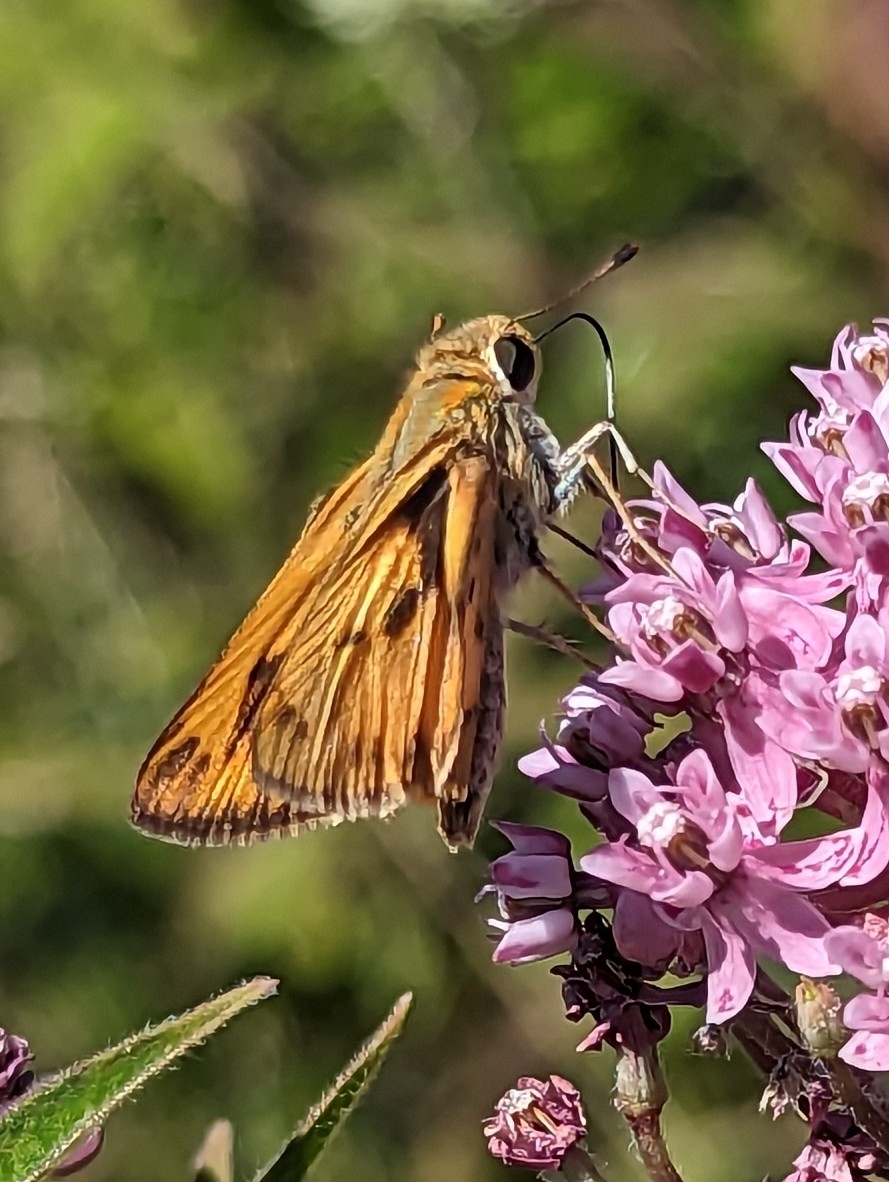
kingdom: Animalia
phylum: Arthropoda
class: Insecta
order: Lepidoptera
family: Hesperiidae
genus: Hylephila
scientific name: Hylephila phyleus
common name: Fiery skipper
